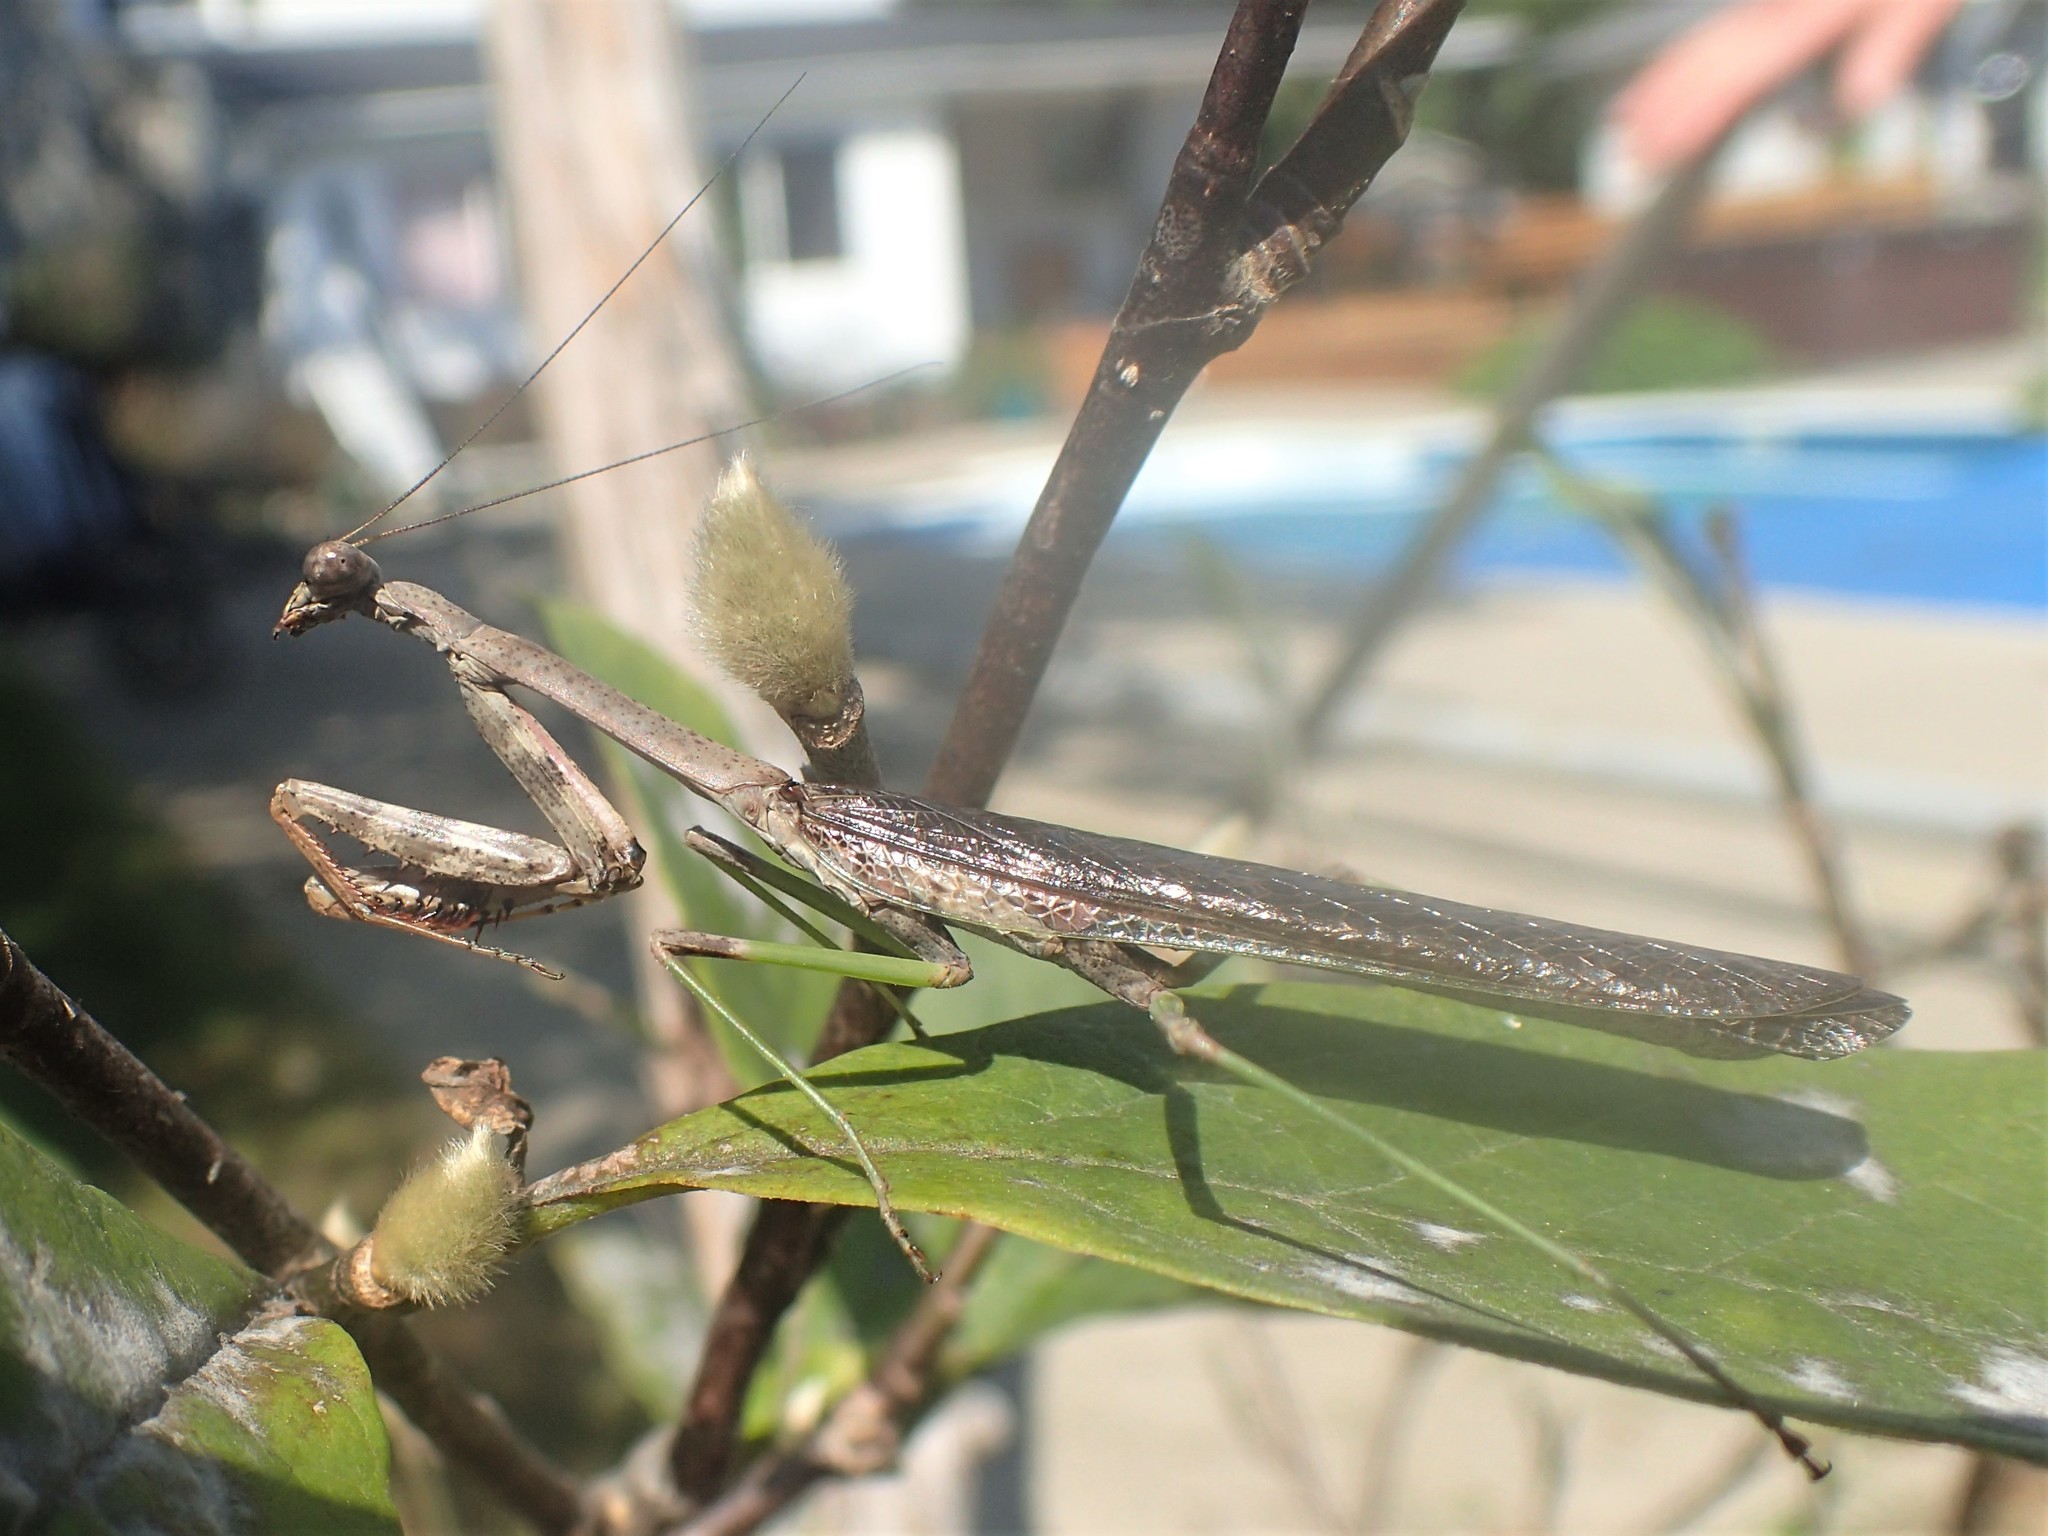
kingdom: Animalia
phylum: Arthropoda
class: Insecta
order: Mantodea
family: Mantidae
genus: Stagmomantis
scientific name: Stagmomantis carolina
